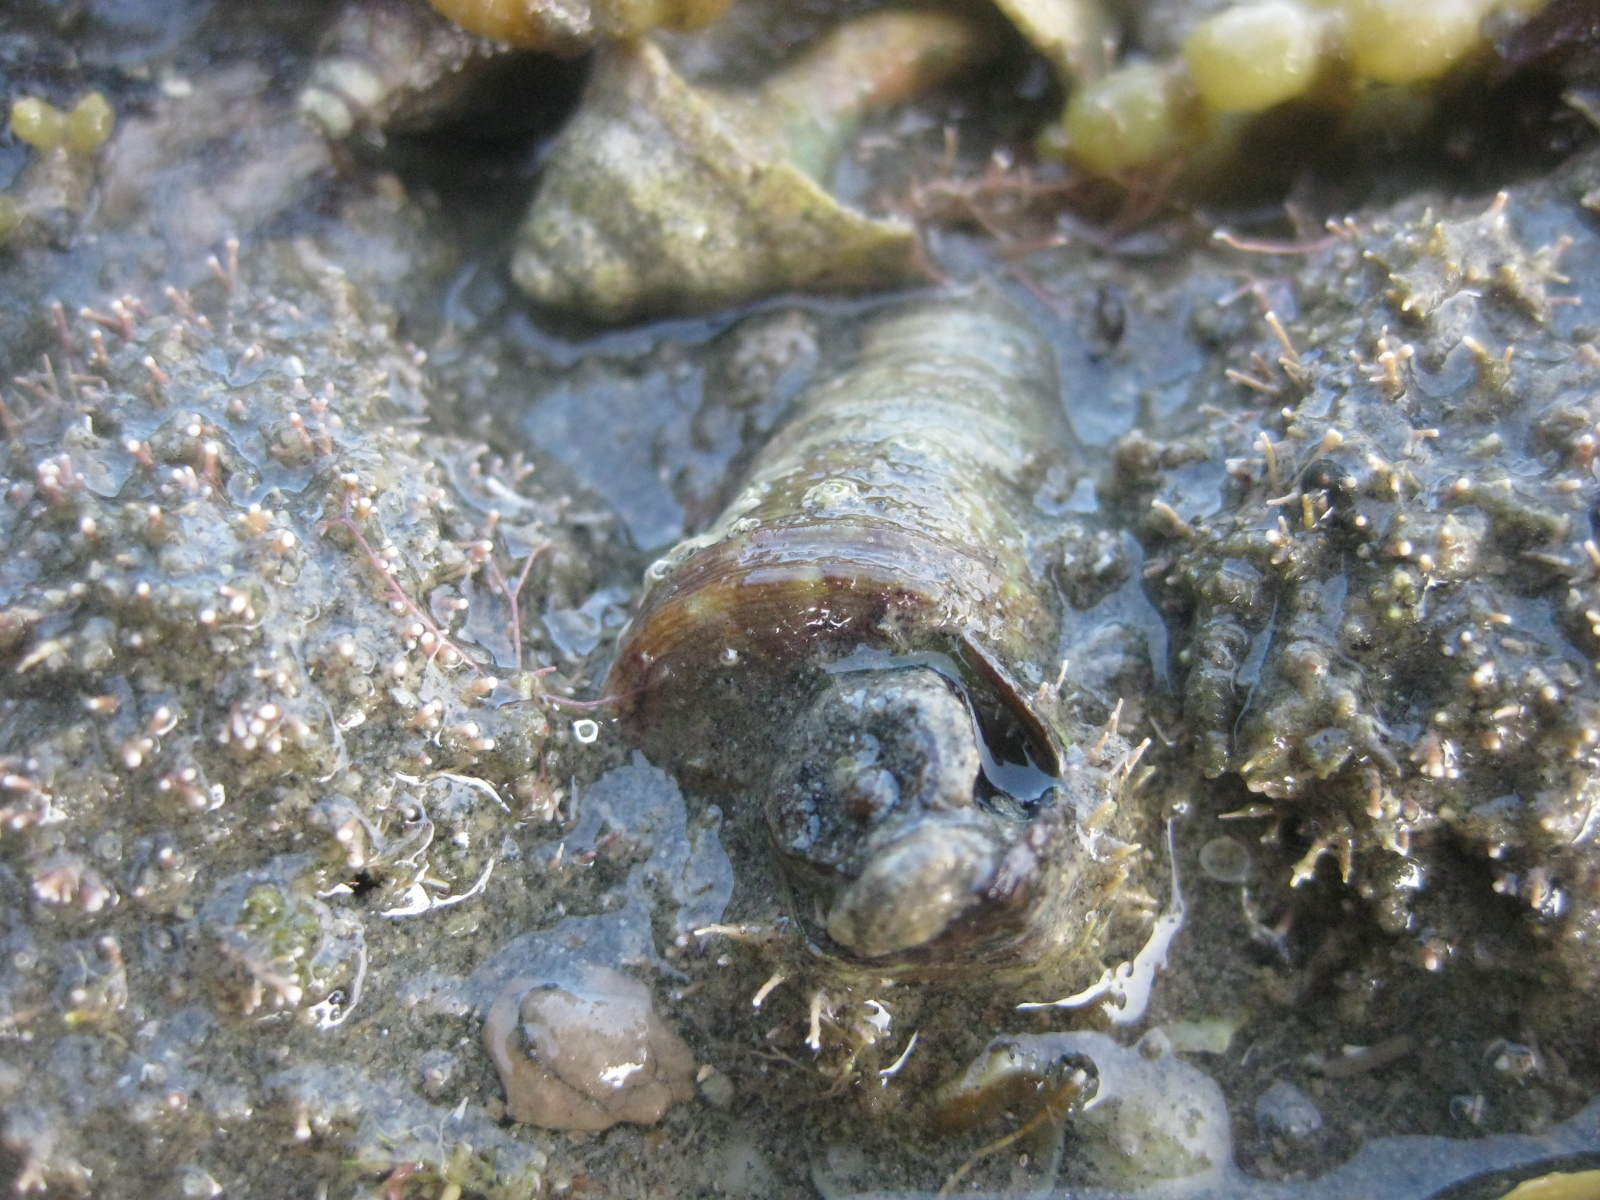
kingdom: Animalia
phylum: Mollusca
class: Gastropoda
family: Turritellidae
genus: Maoricolpus
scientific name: Maoricolpus roseus
